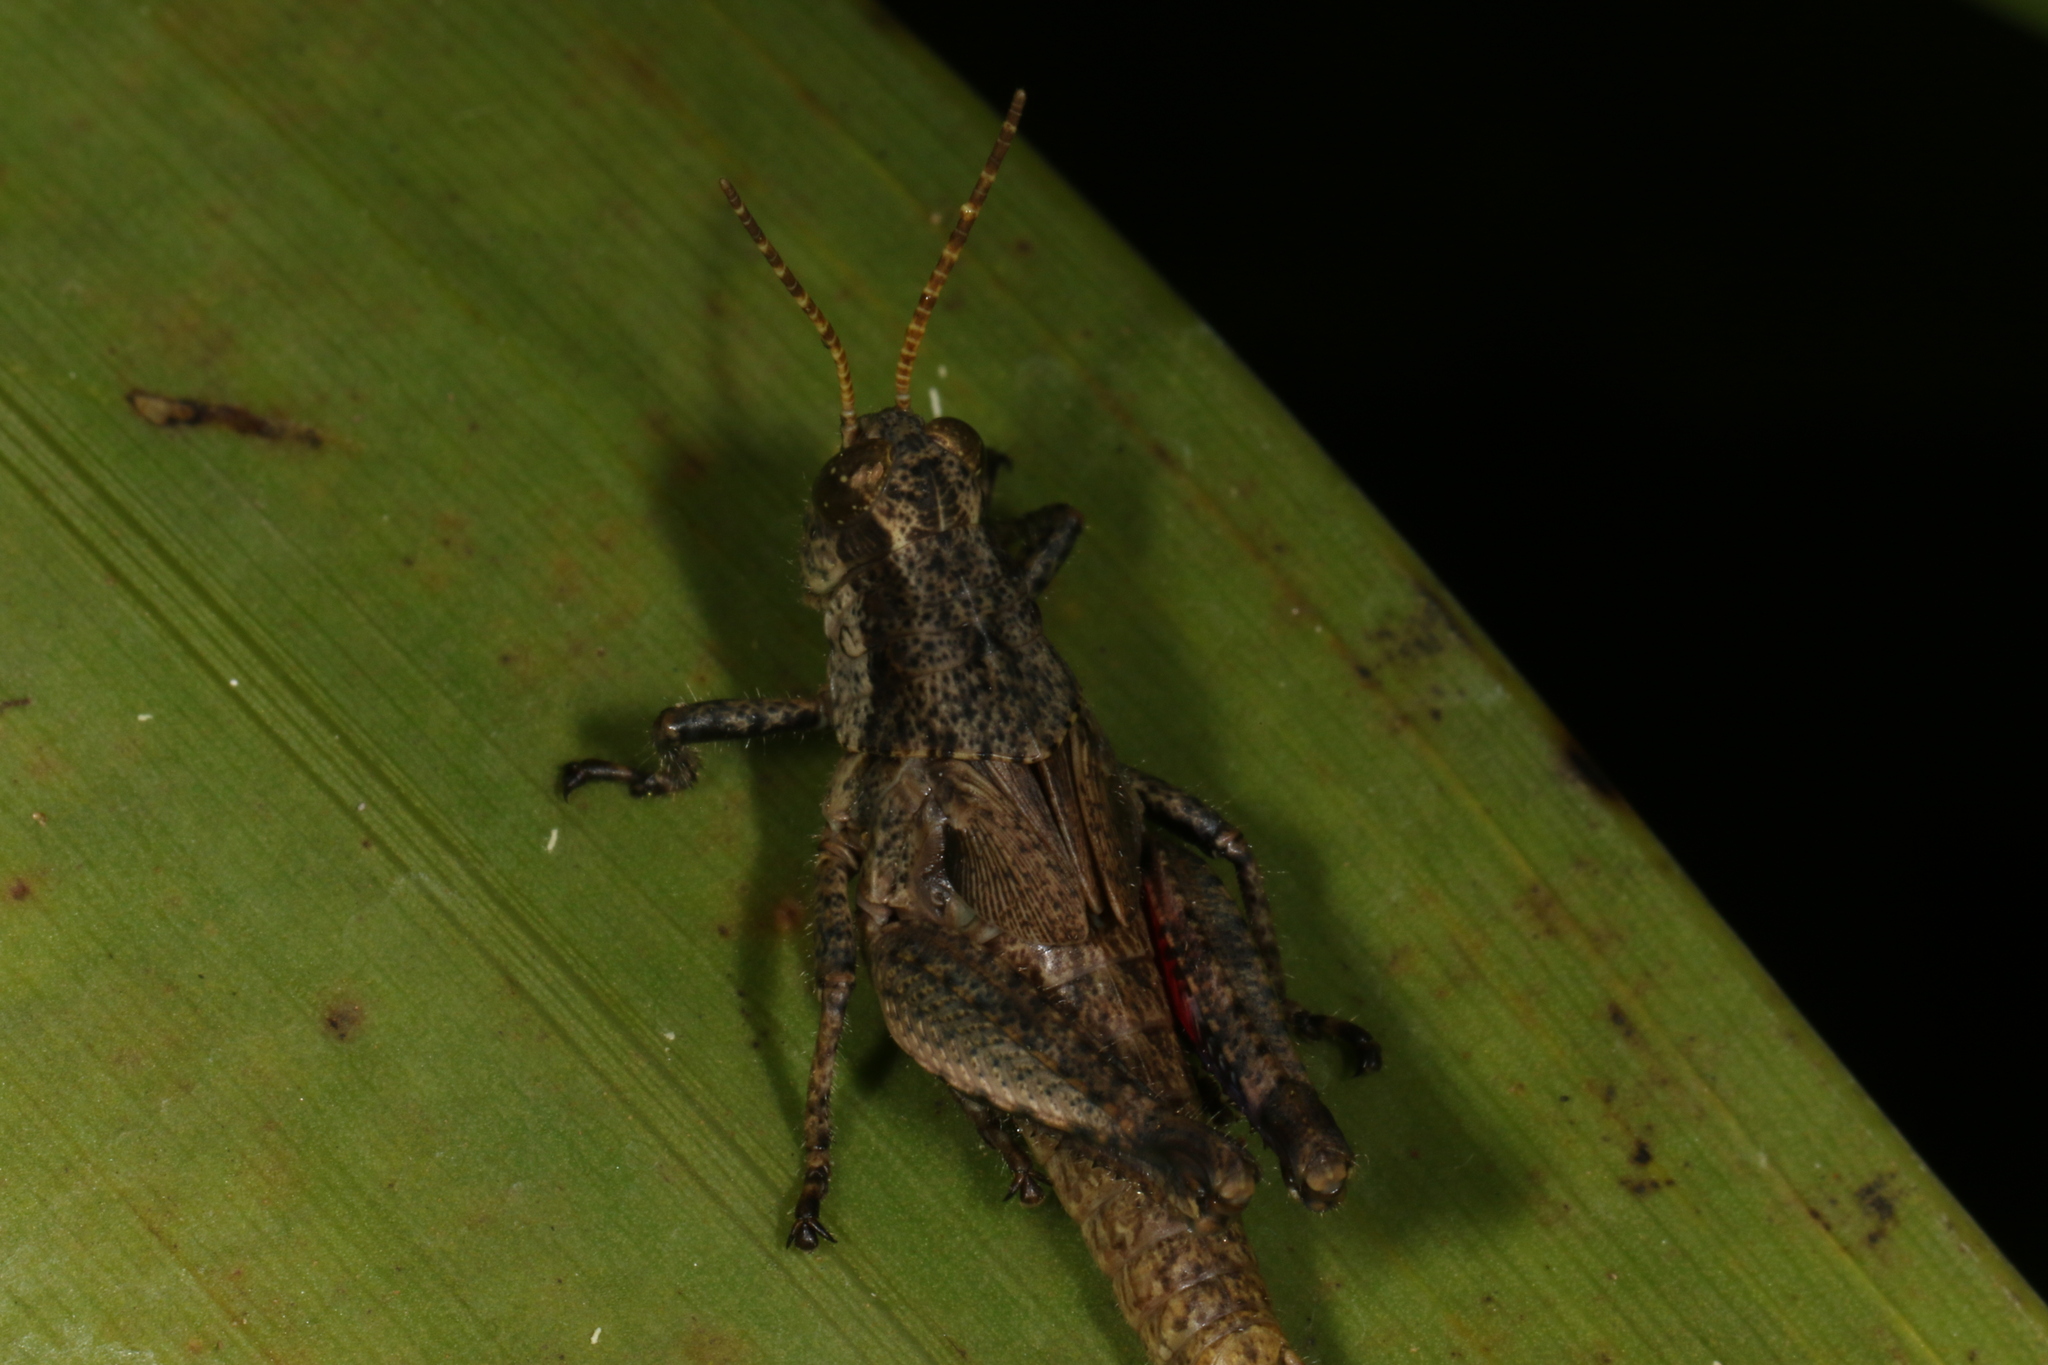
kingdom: Animalia
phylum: Arthropoda
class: Insecta
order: Orthoptera
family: Acrididae
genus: Ronderosia
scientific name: Ronderosia bergii
